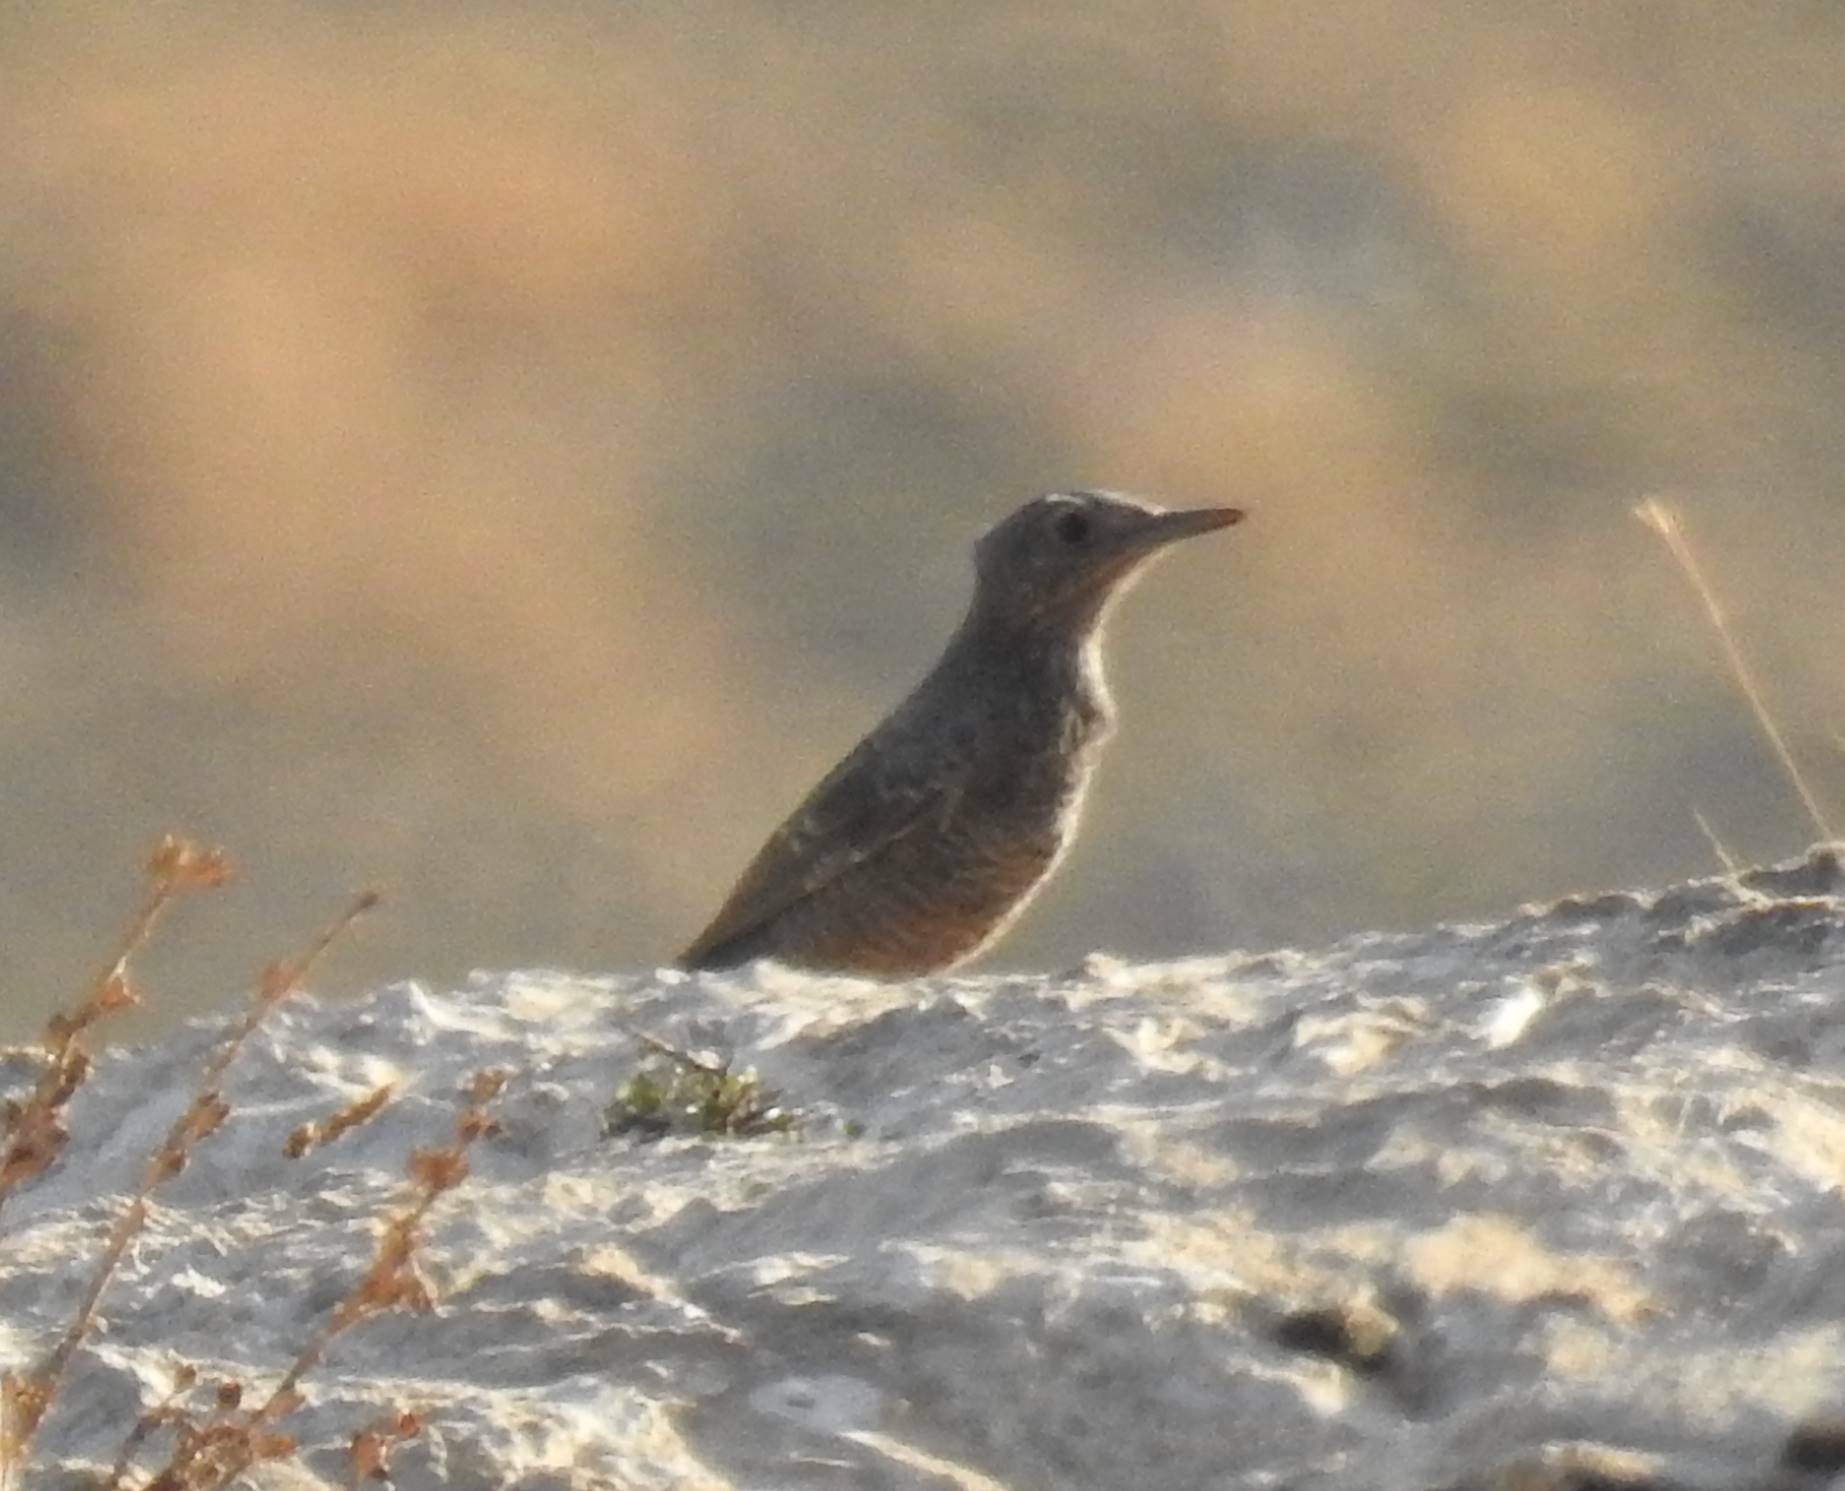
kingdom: Animalia
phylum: Chordata
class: Aves
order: Passeriformes
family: Muscicapidae
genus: Monticola
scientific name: Monticola solitarius
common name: Blue rock thrush
